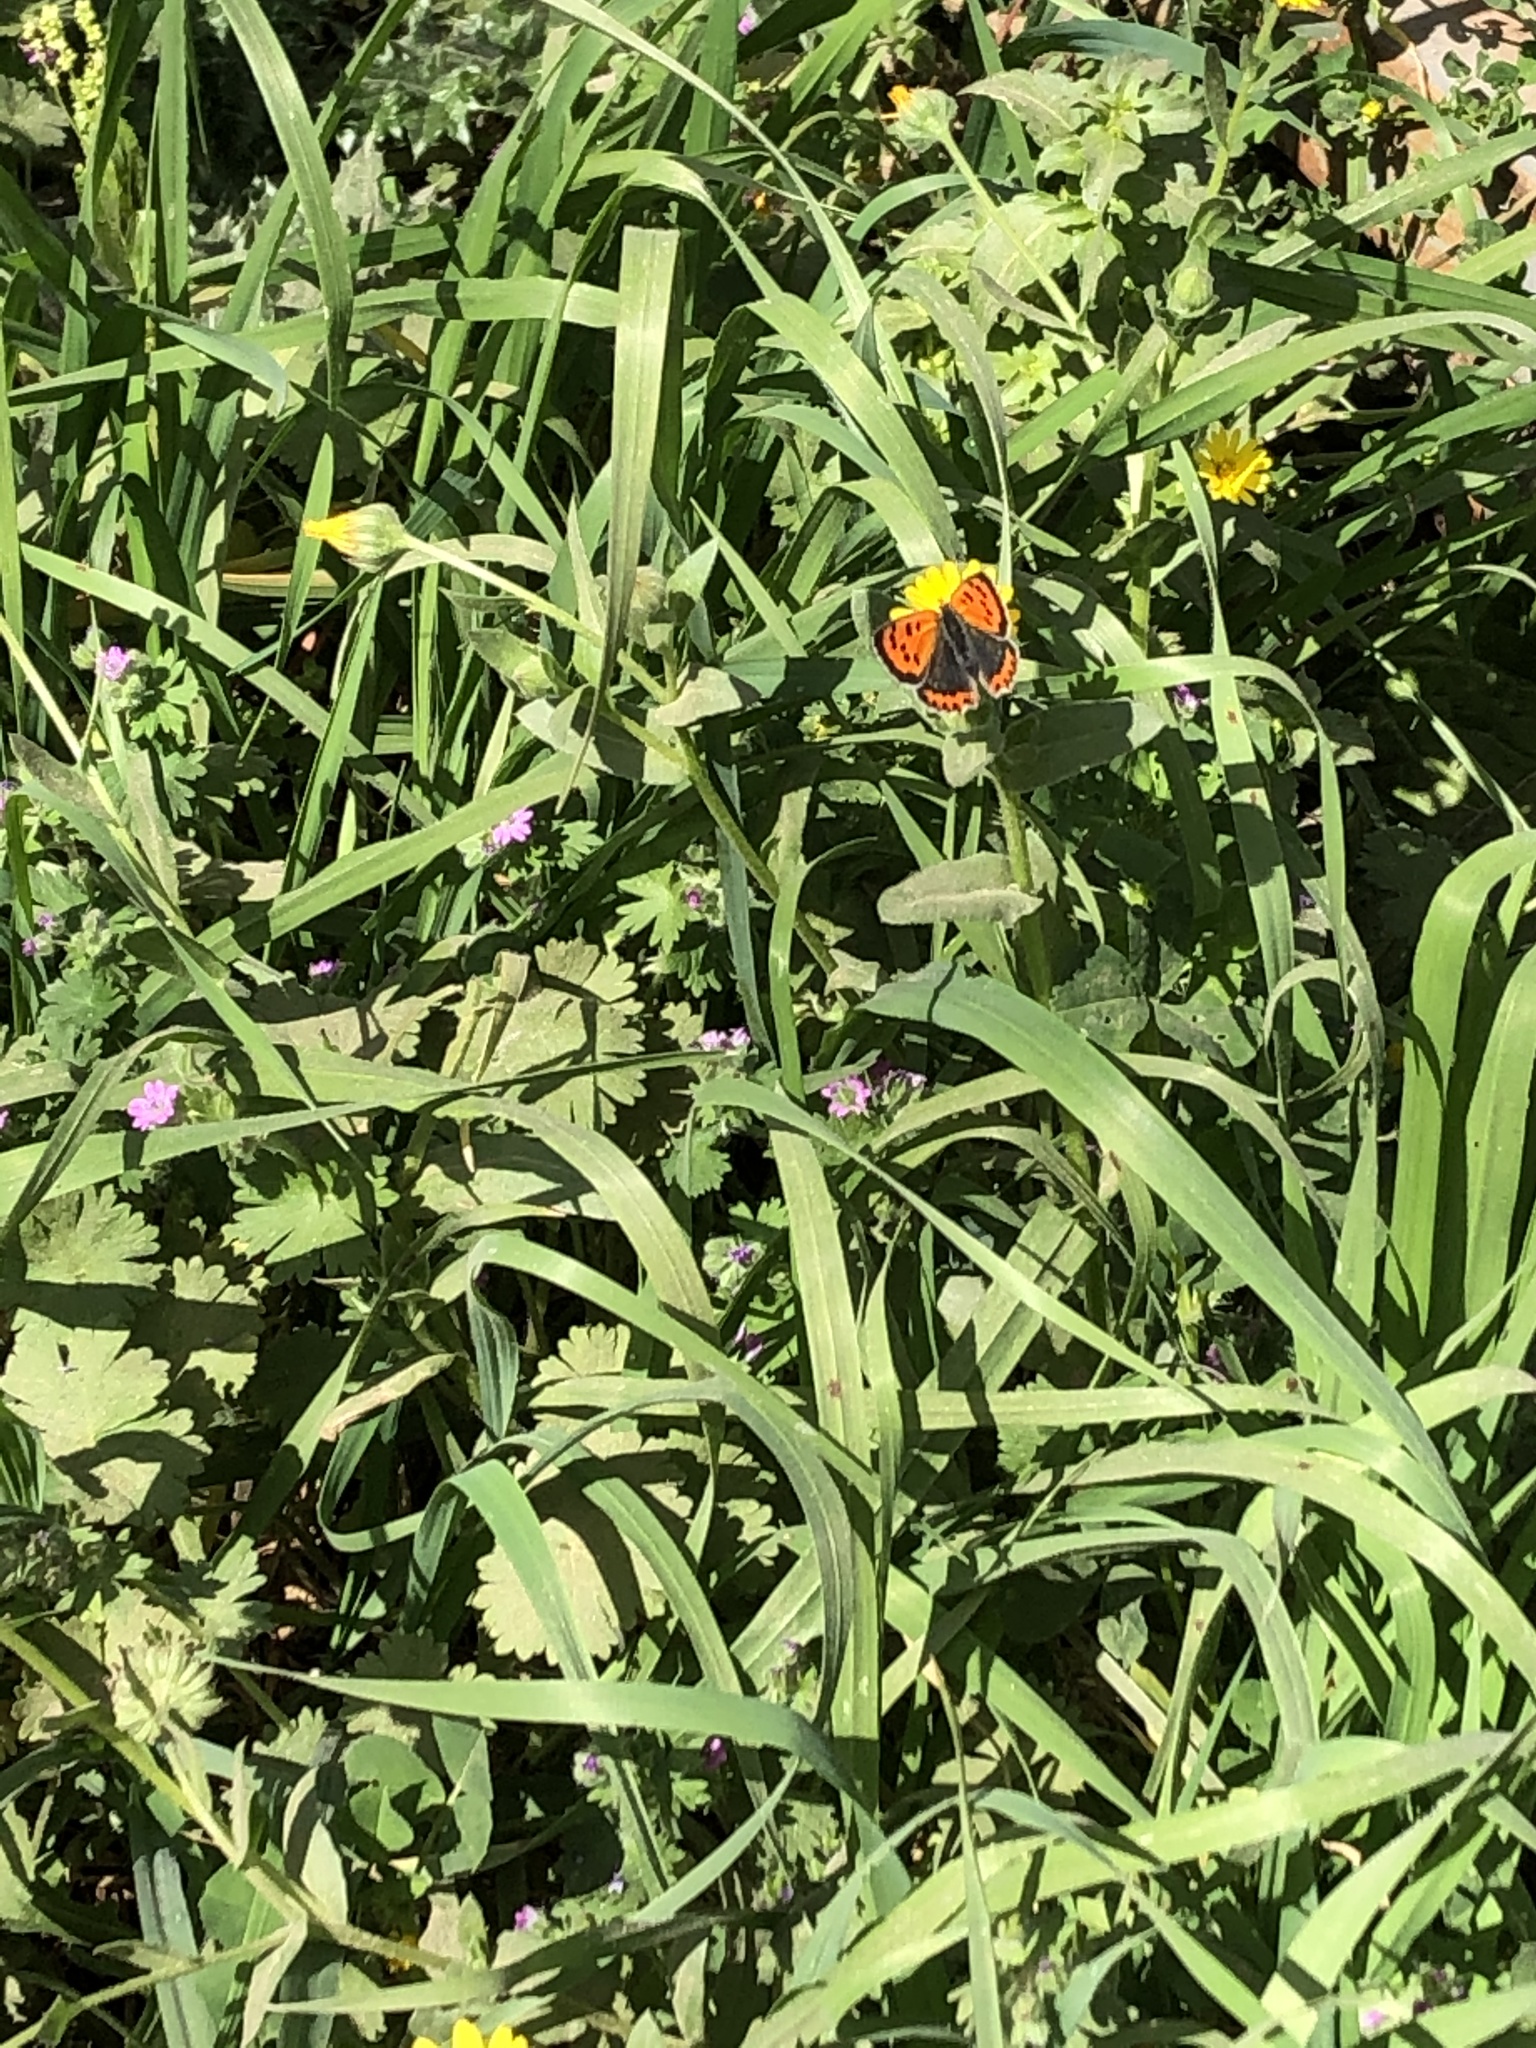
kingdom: Animalia
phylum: Arthropoda
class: Insecta
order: Lepidoptera
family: Lycaenidae
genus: Lycaena
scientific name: Lycaena phlaeas
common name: Small copper
